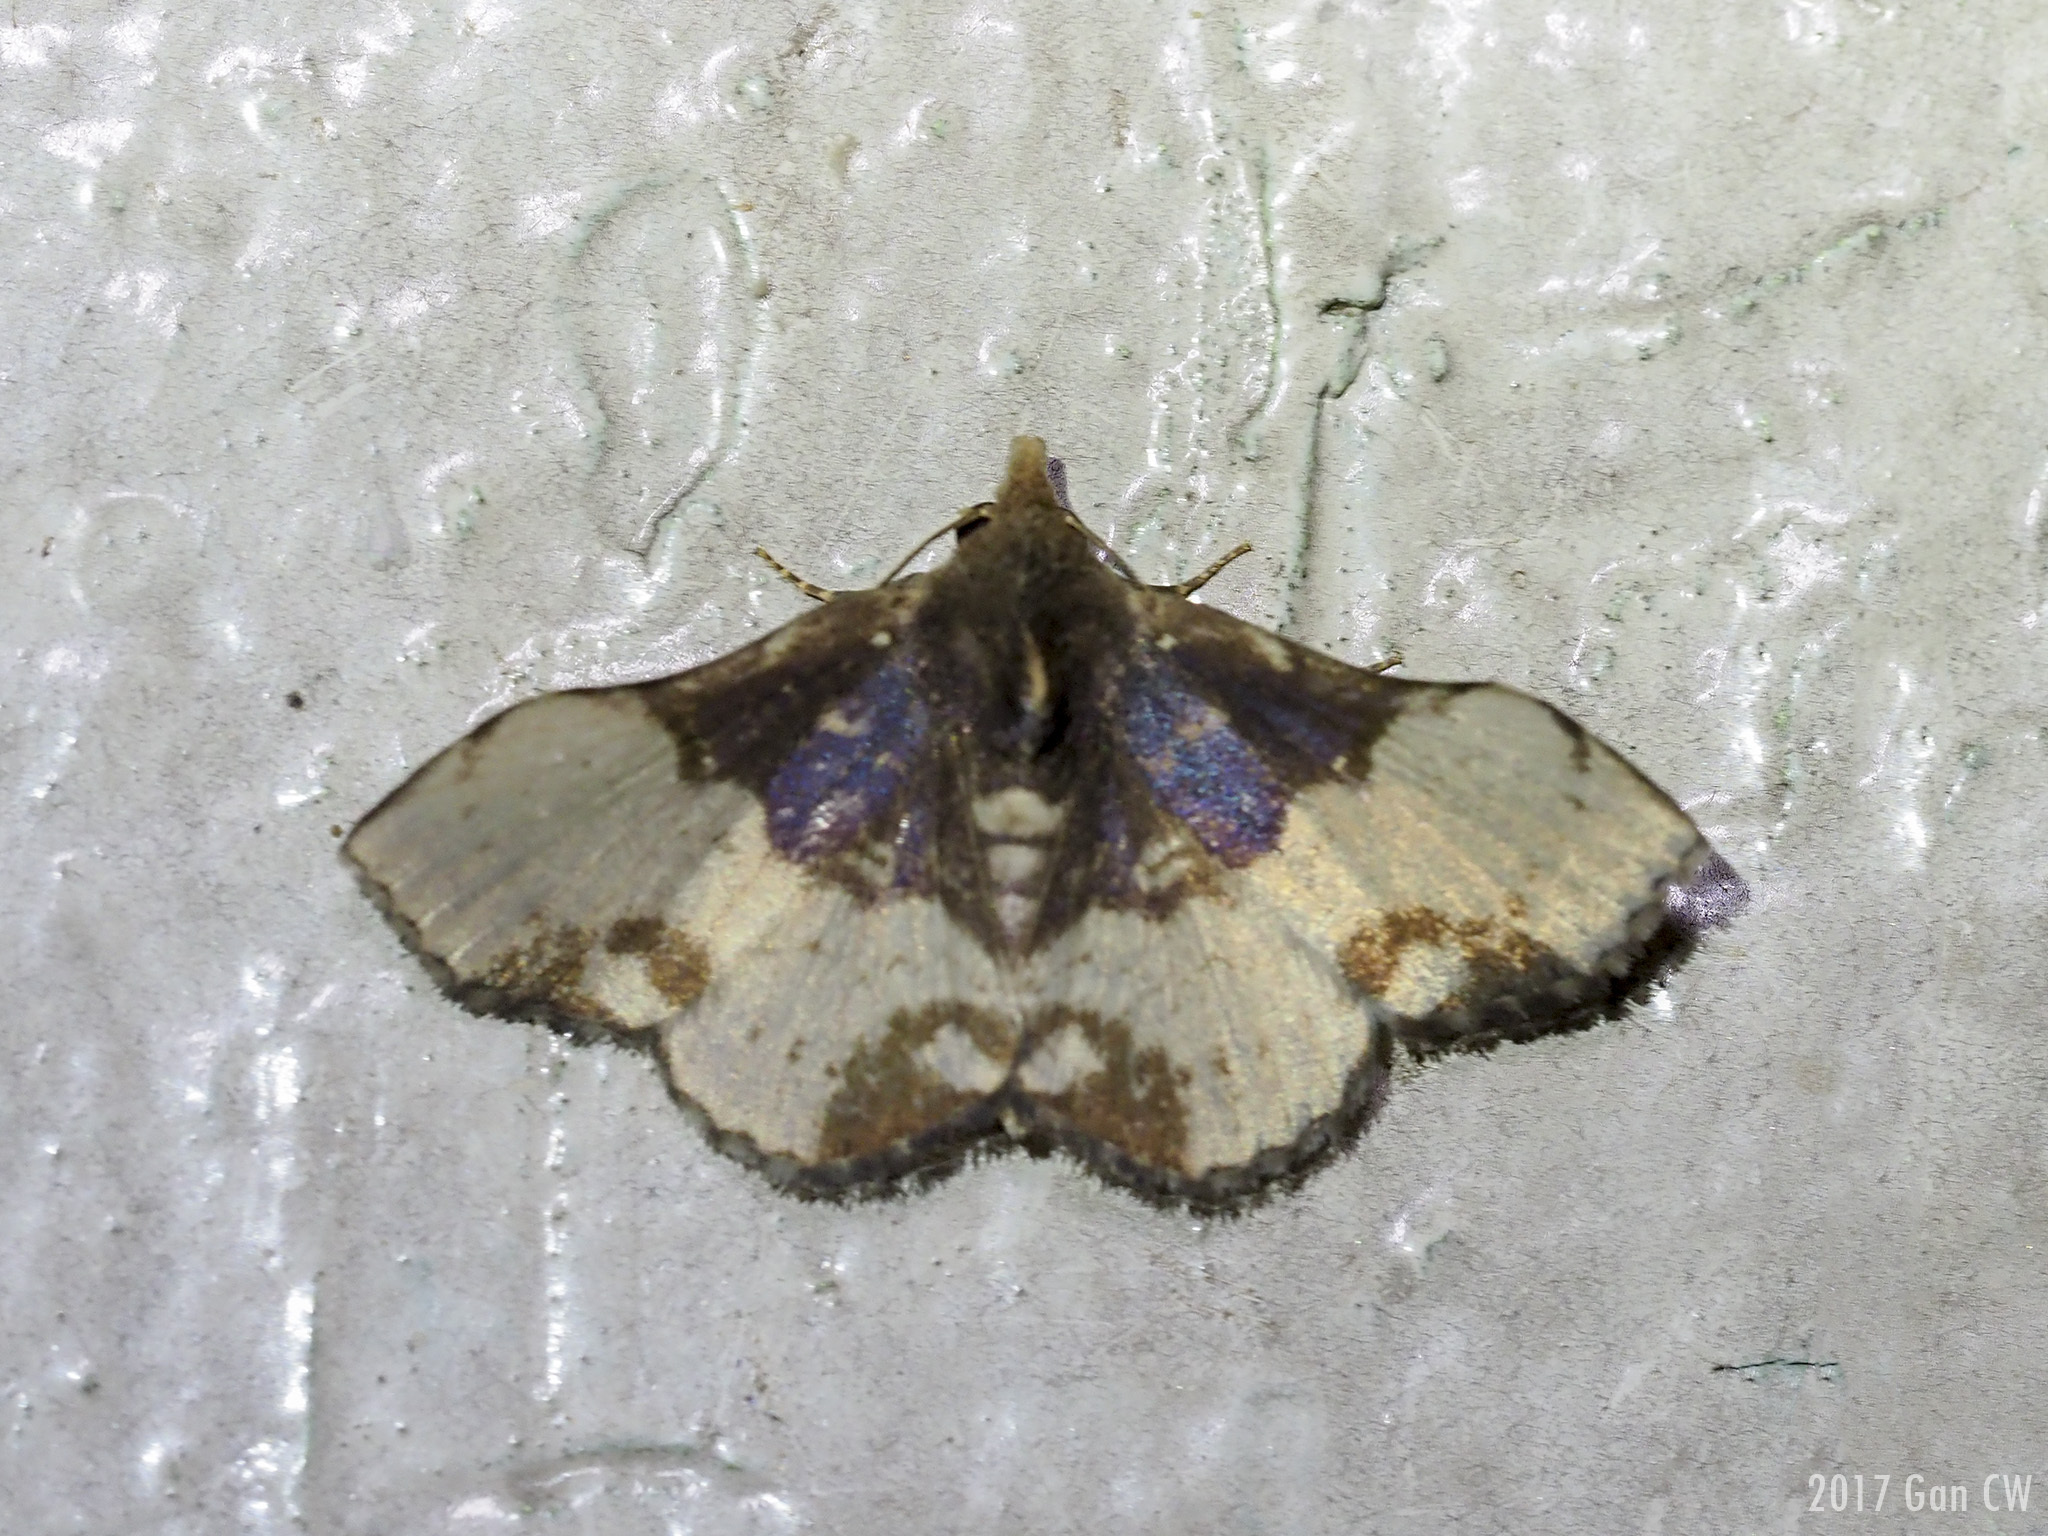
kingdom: Animalia
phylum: Arthropoda
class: Insecta
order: Lepidoptera
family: Erebidae
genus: Mosopia
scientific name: Mosopia kononenkoi
